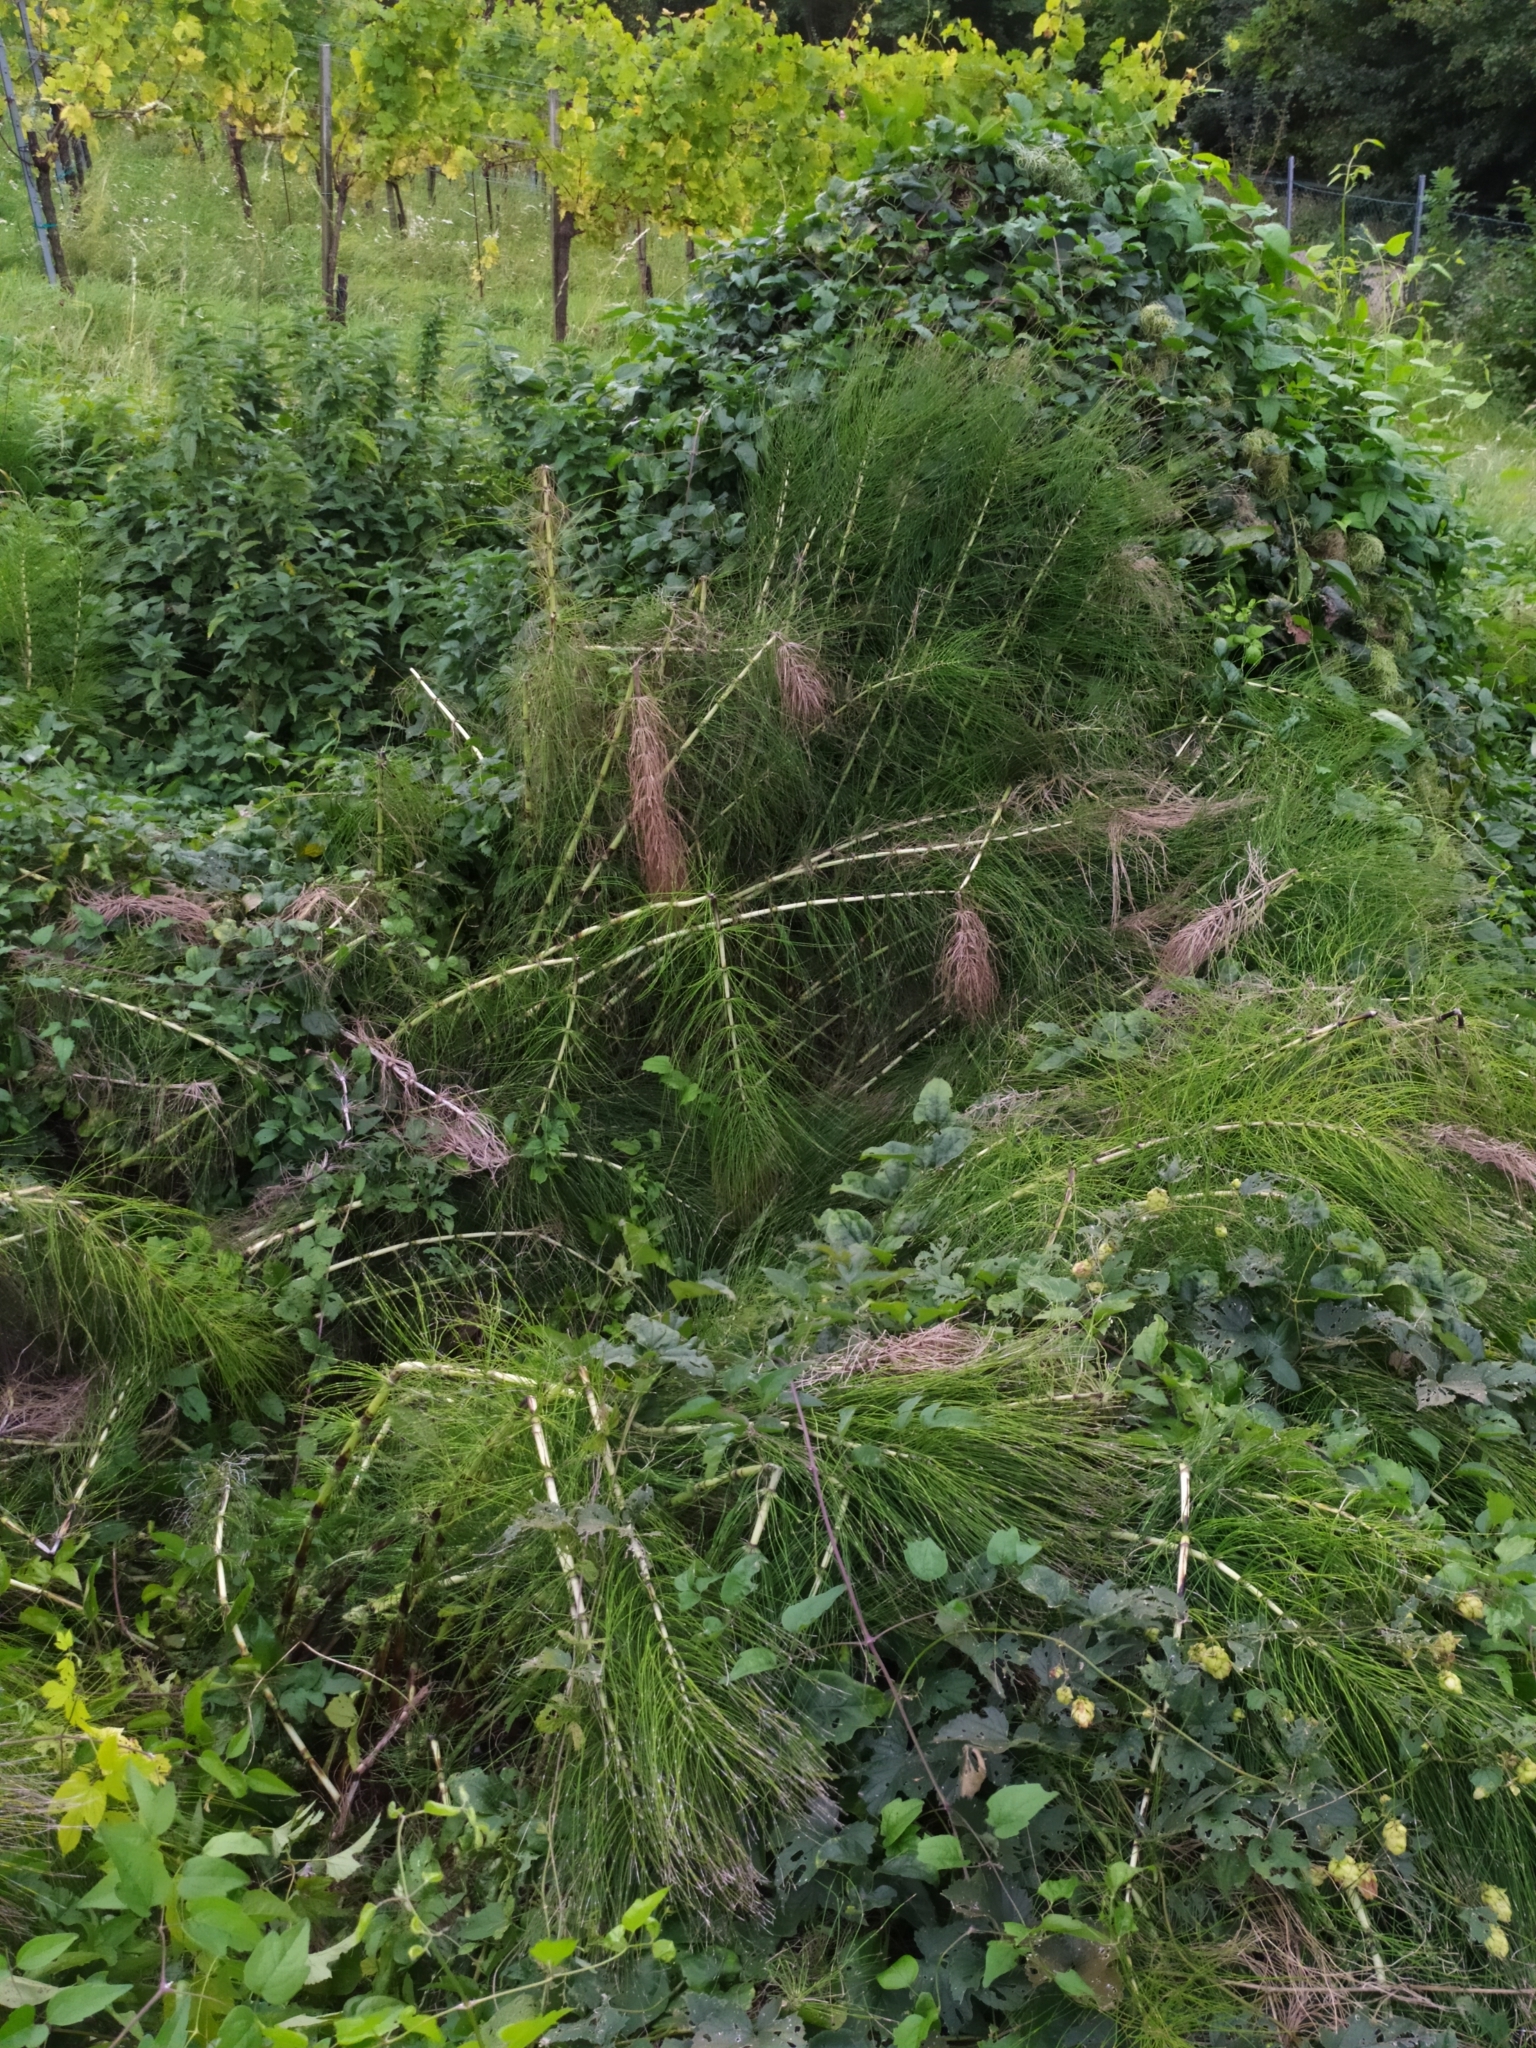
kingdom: Plantae
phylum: Tracheophyta
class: Polypodiopsida
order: Equisetales
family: Equisetaceae
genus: Equisetum
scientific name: Equisetum telmateia
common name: Great horsetail
